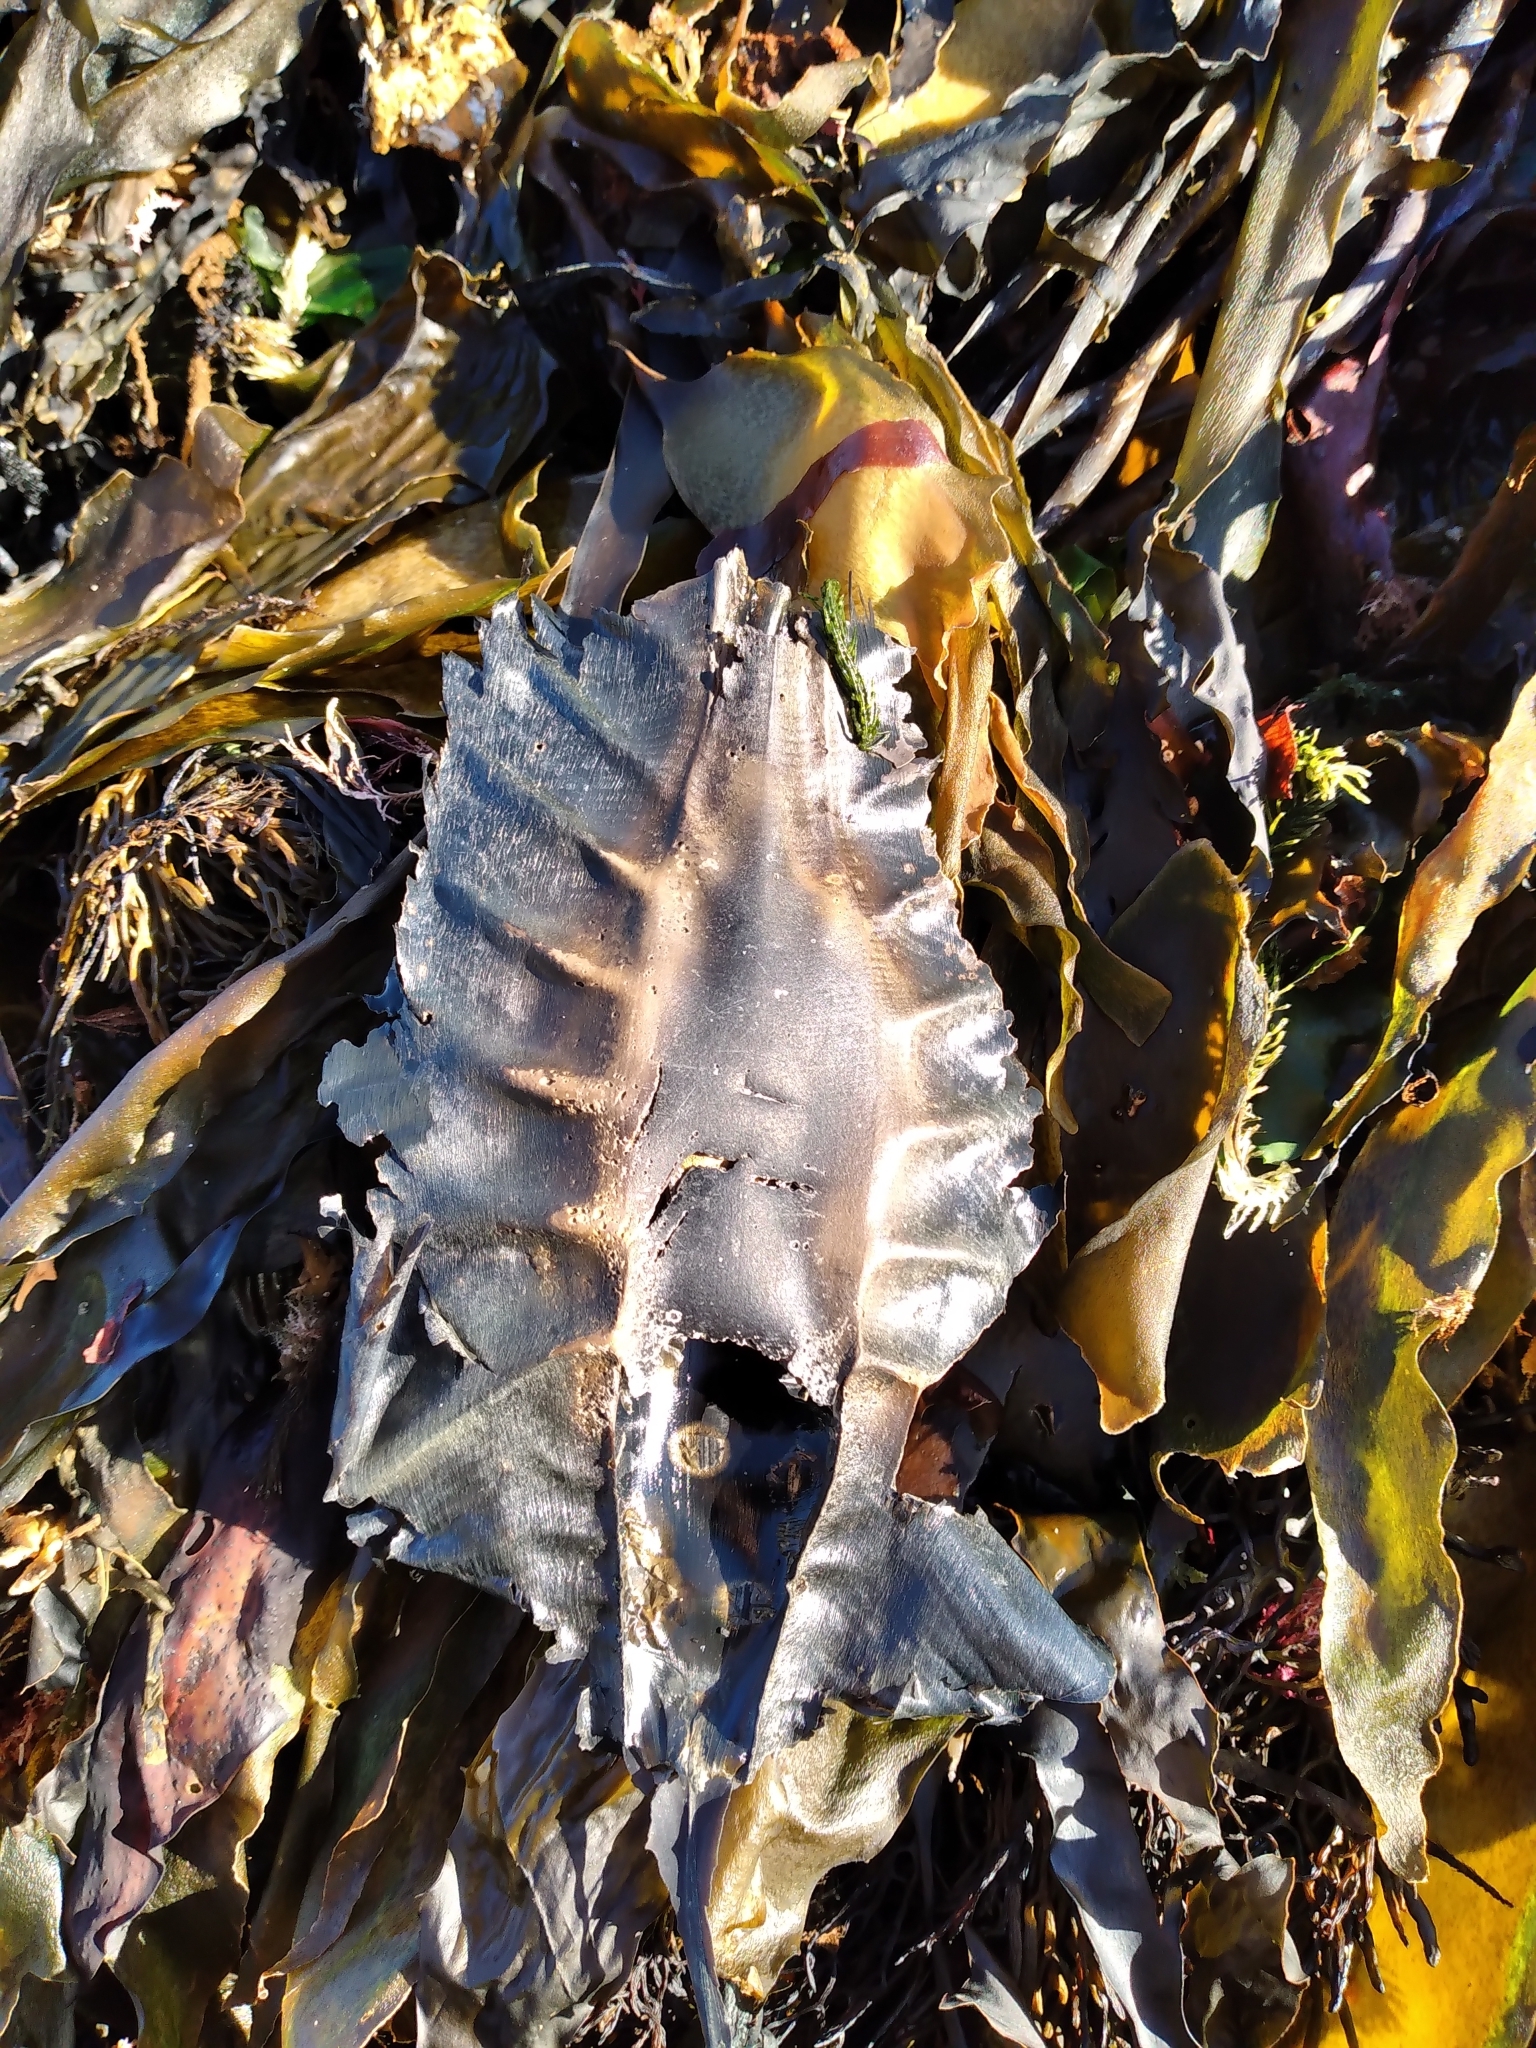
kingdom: Animalia
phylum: Chordata
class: Holocephali
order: Chimaeriformes
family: Callorhinchidae
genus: Callorhinchus
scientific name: Callorhinchus milii
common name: Elephant fish
